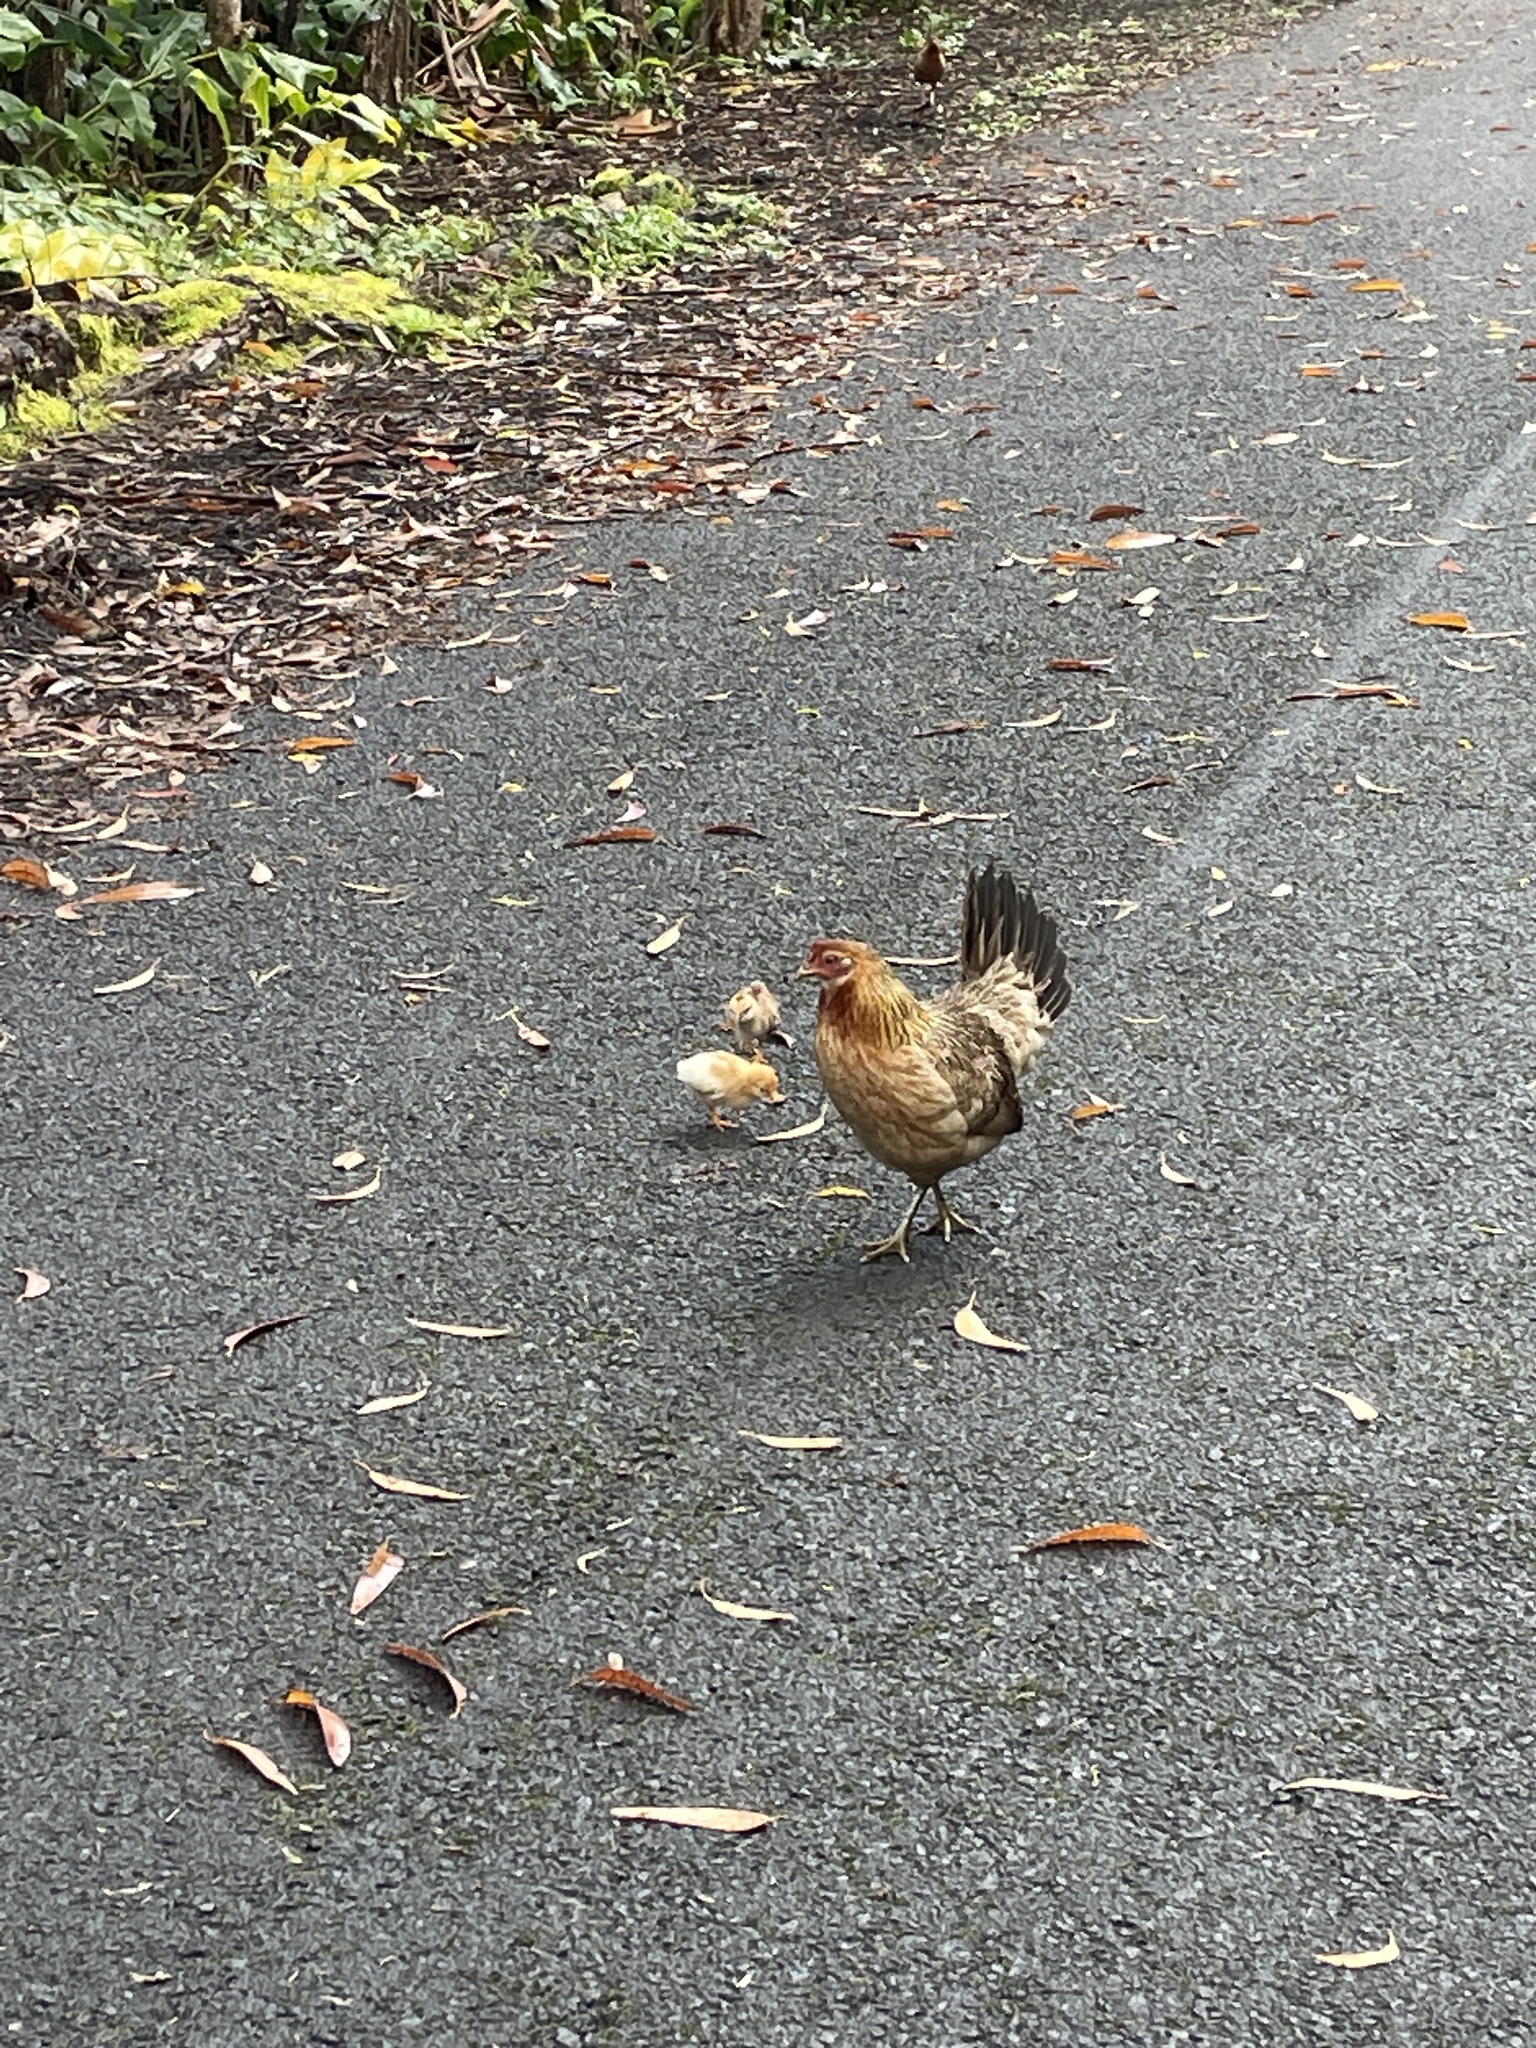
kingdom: Animalia
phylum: Chordata
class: Aves
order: Galliformes
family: Phasianidae
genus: Gallus
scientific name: Gallus gallus
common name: Red junglefowl
